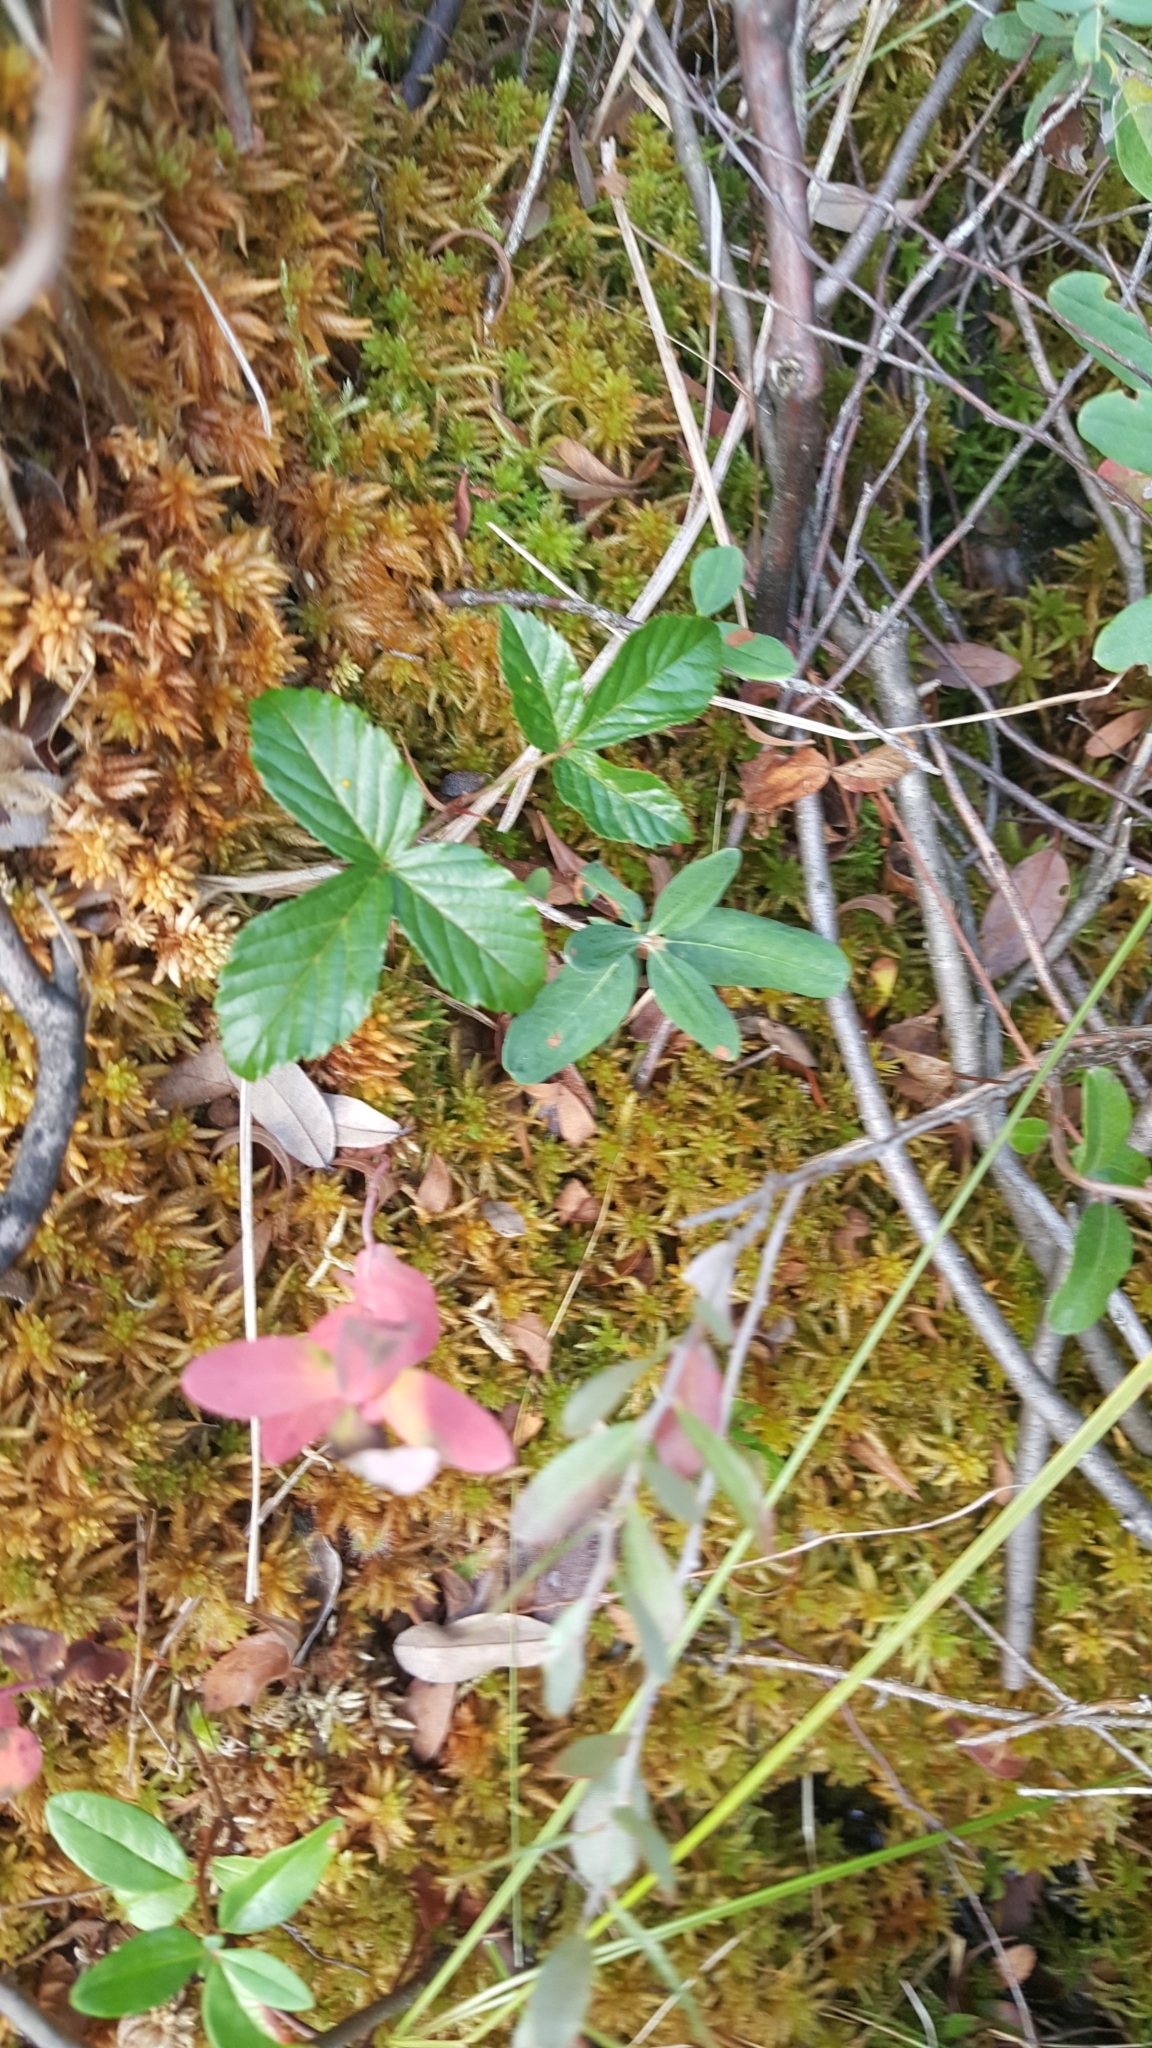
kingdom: Plantae
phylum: Bryophyta
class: Sphagnopsida
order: Sphagnales
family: Sphagnaceae
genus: Sphagnum
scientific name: Sphagnum
